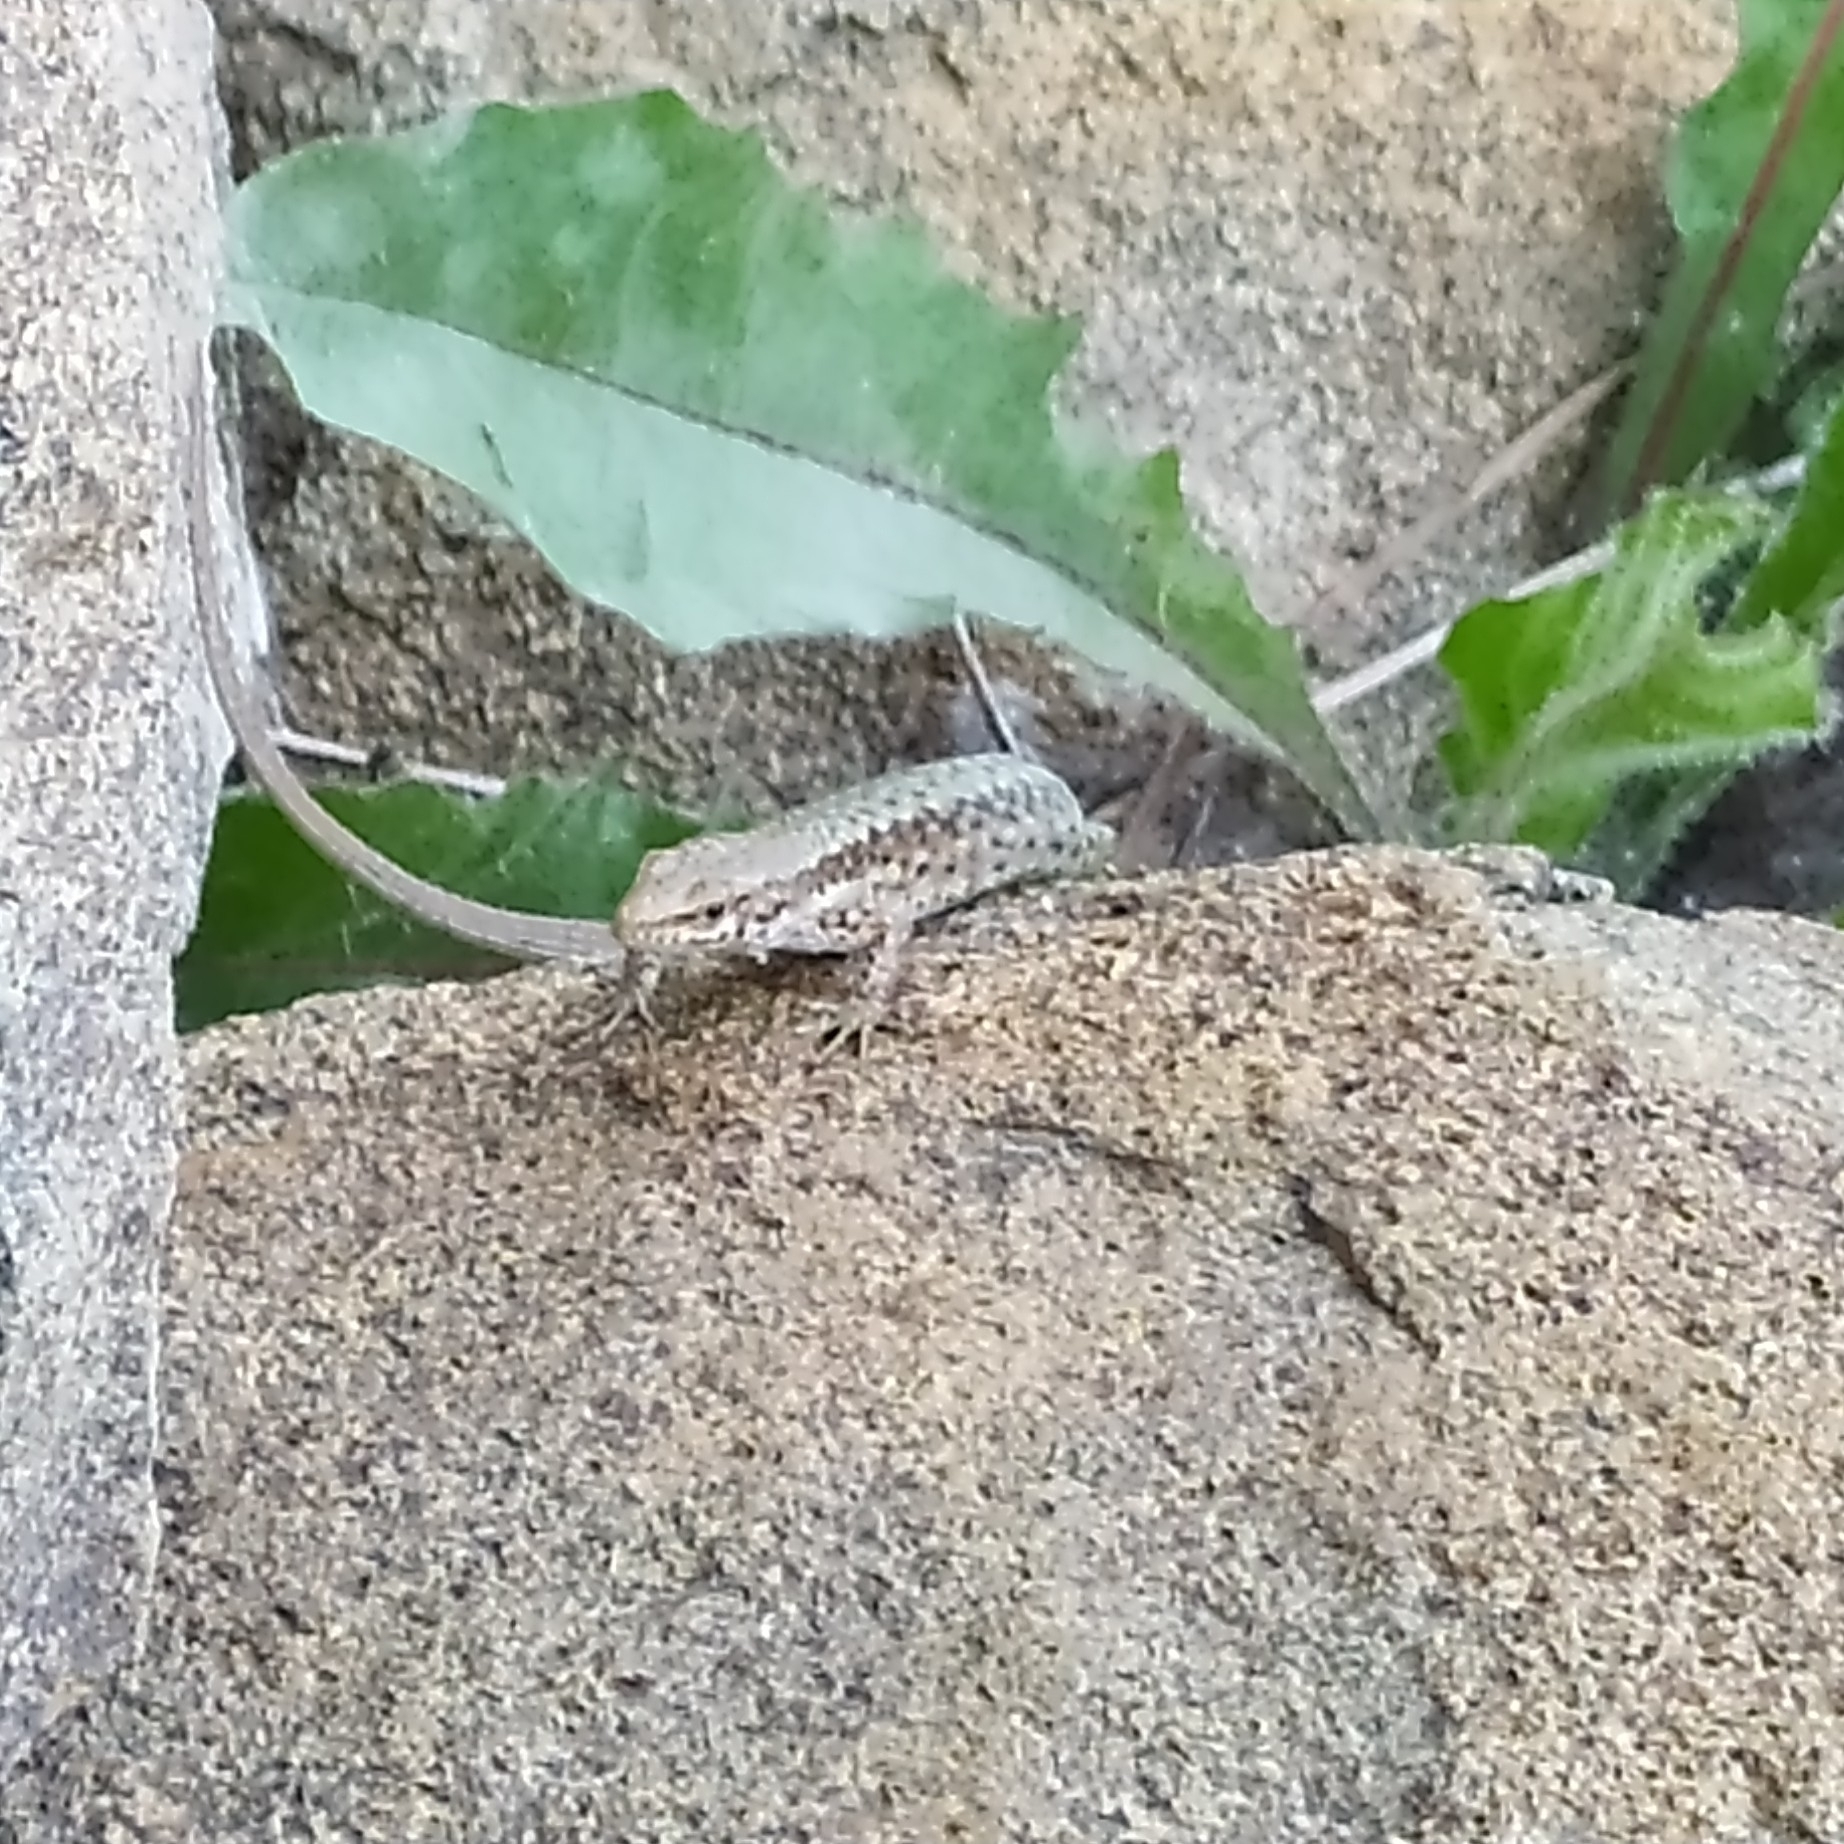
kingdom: Animalia
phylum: Chordata
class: Squamata
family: Lacertidae
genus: Darevskia
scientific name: Darevskia lindholmi
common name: Crimean rock lizard
